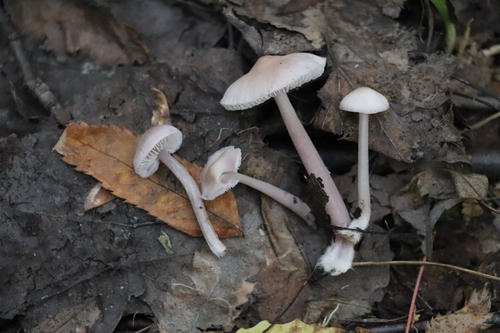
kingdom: Fungi
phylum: Basidiomycota
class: Agaricomycetes
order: Agaricales
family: Mycenaceae
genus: Mycena
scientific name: Mycena pura
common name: Lilac bonnet
